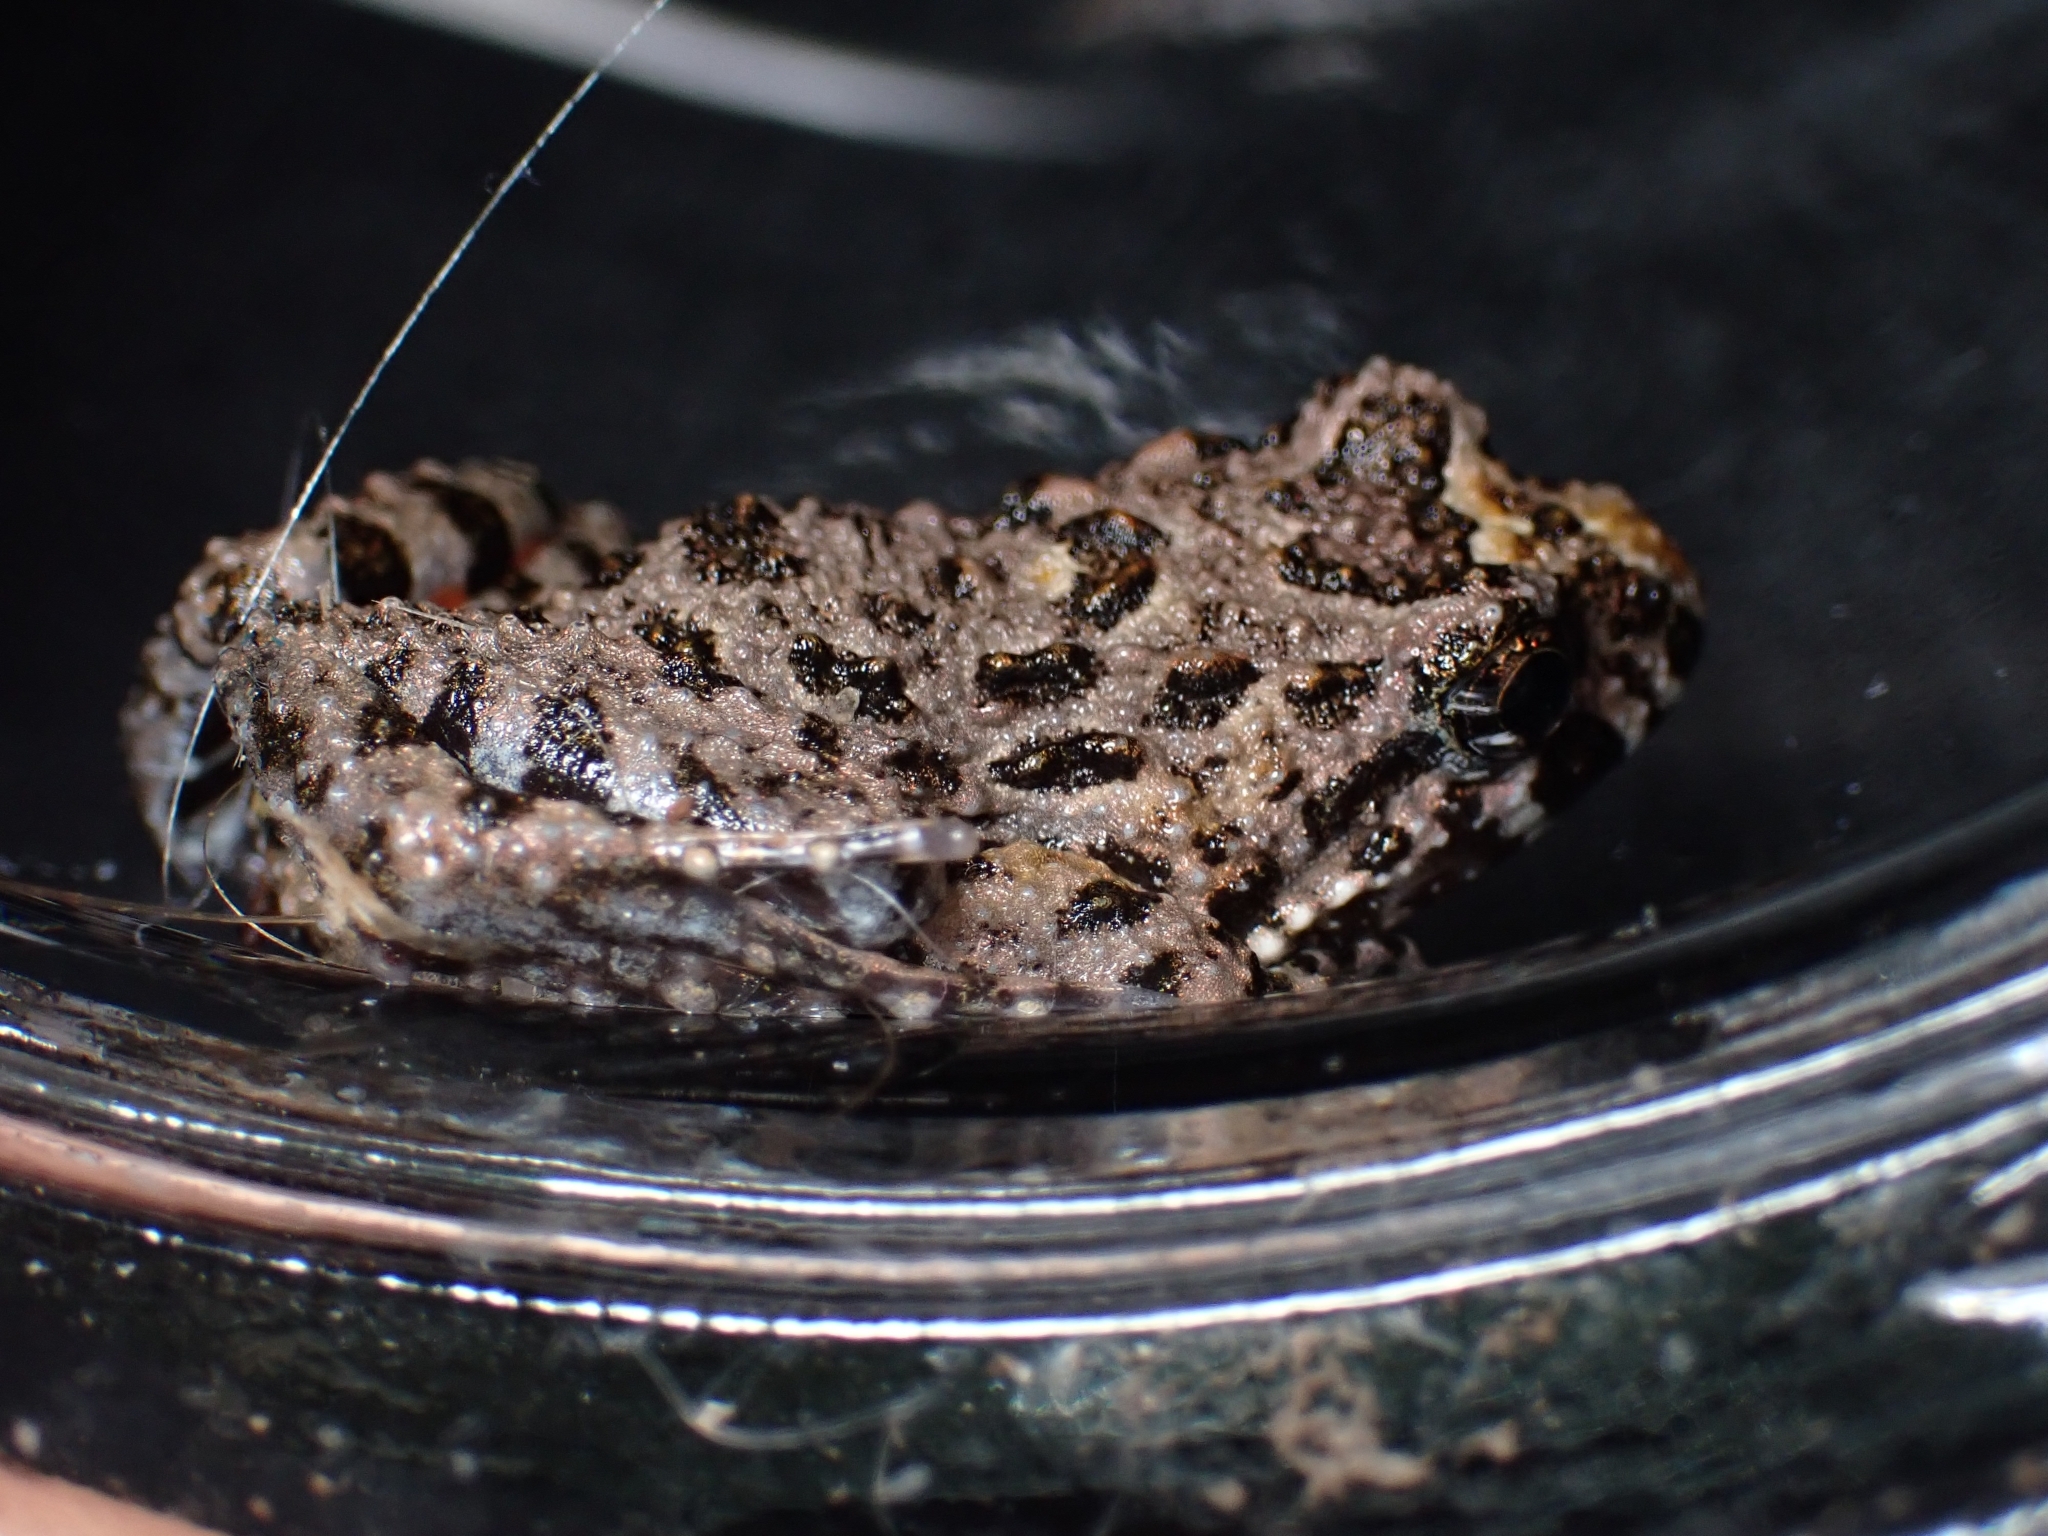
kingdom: Animalia
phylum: Chordata
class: Amphibia
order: Anura
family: Limnodynastidae
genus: Adelotus
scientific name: Adelotus brevis
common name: Tusked frog
